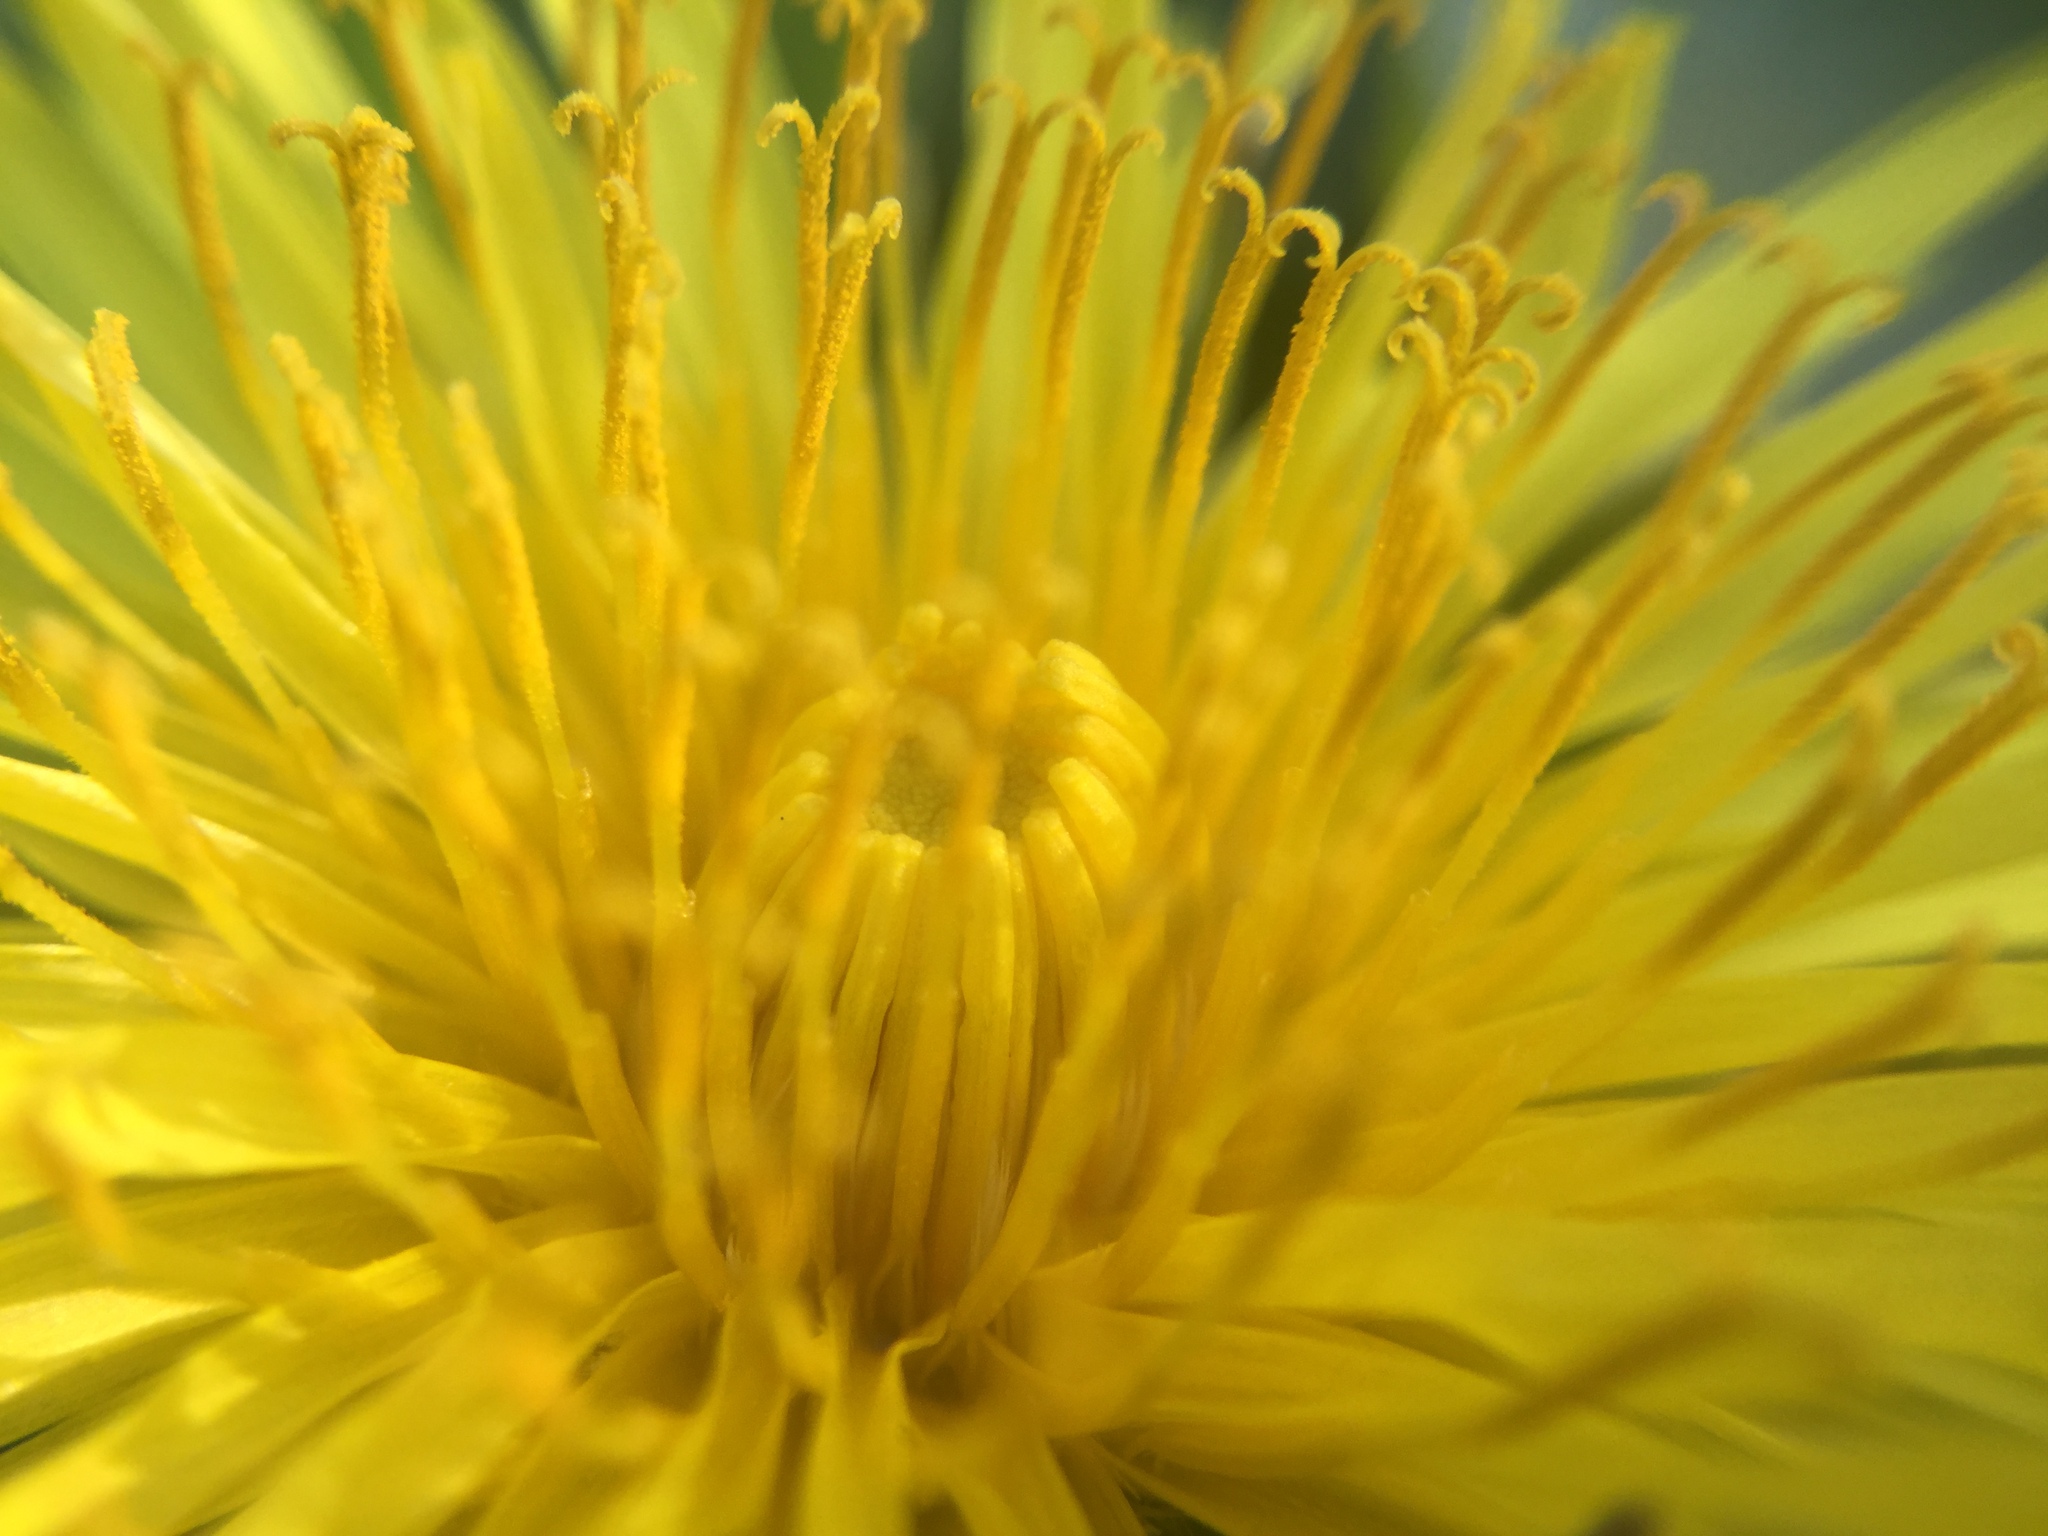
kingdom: Plantae
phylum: Tracheophyta
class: Magnoliopsida
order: Asterales
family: Asteraceae
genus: Taraxacum
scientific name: Taraxacum officinale
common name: Common dandelion
